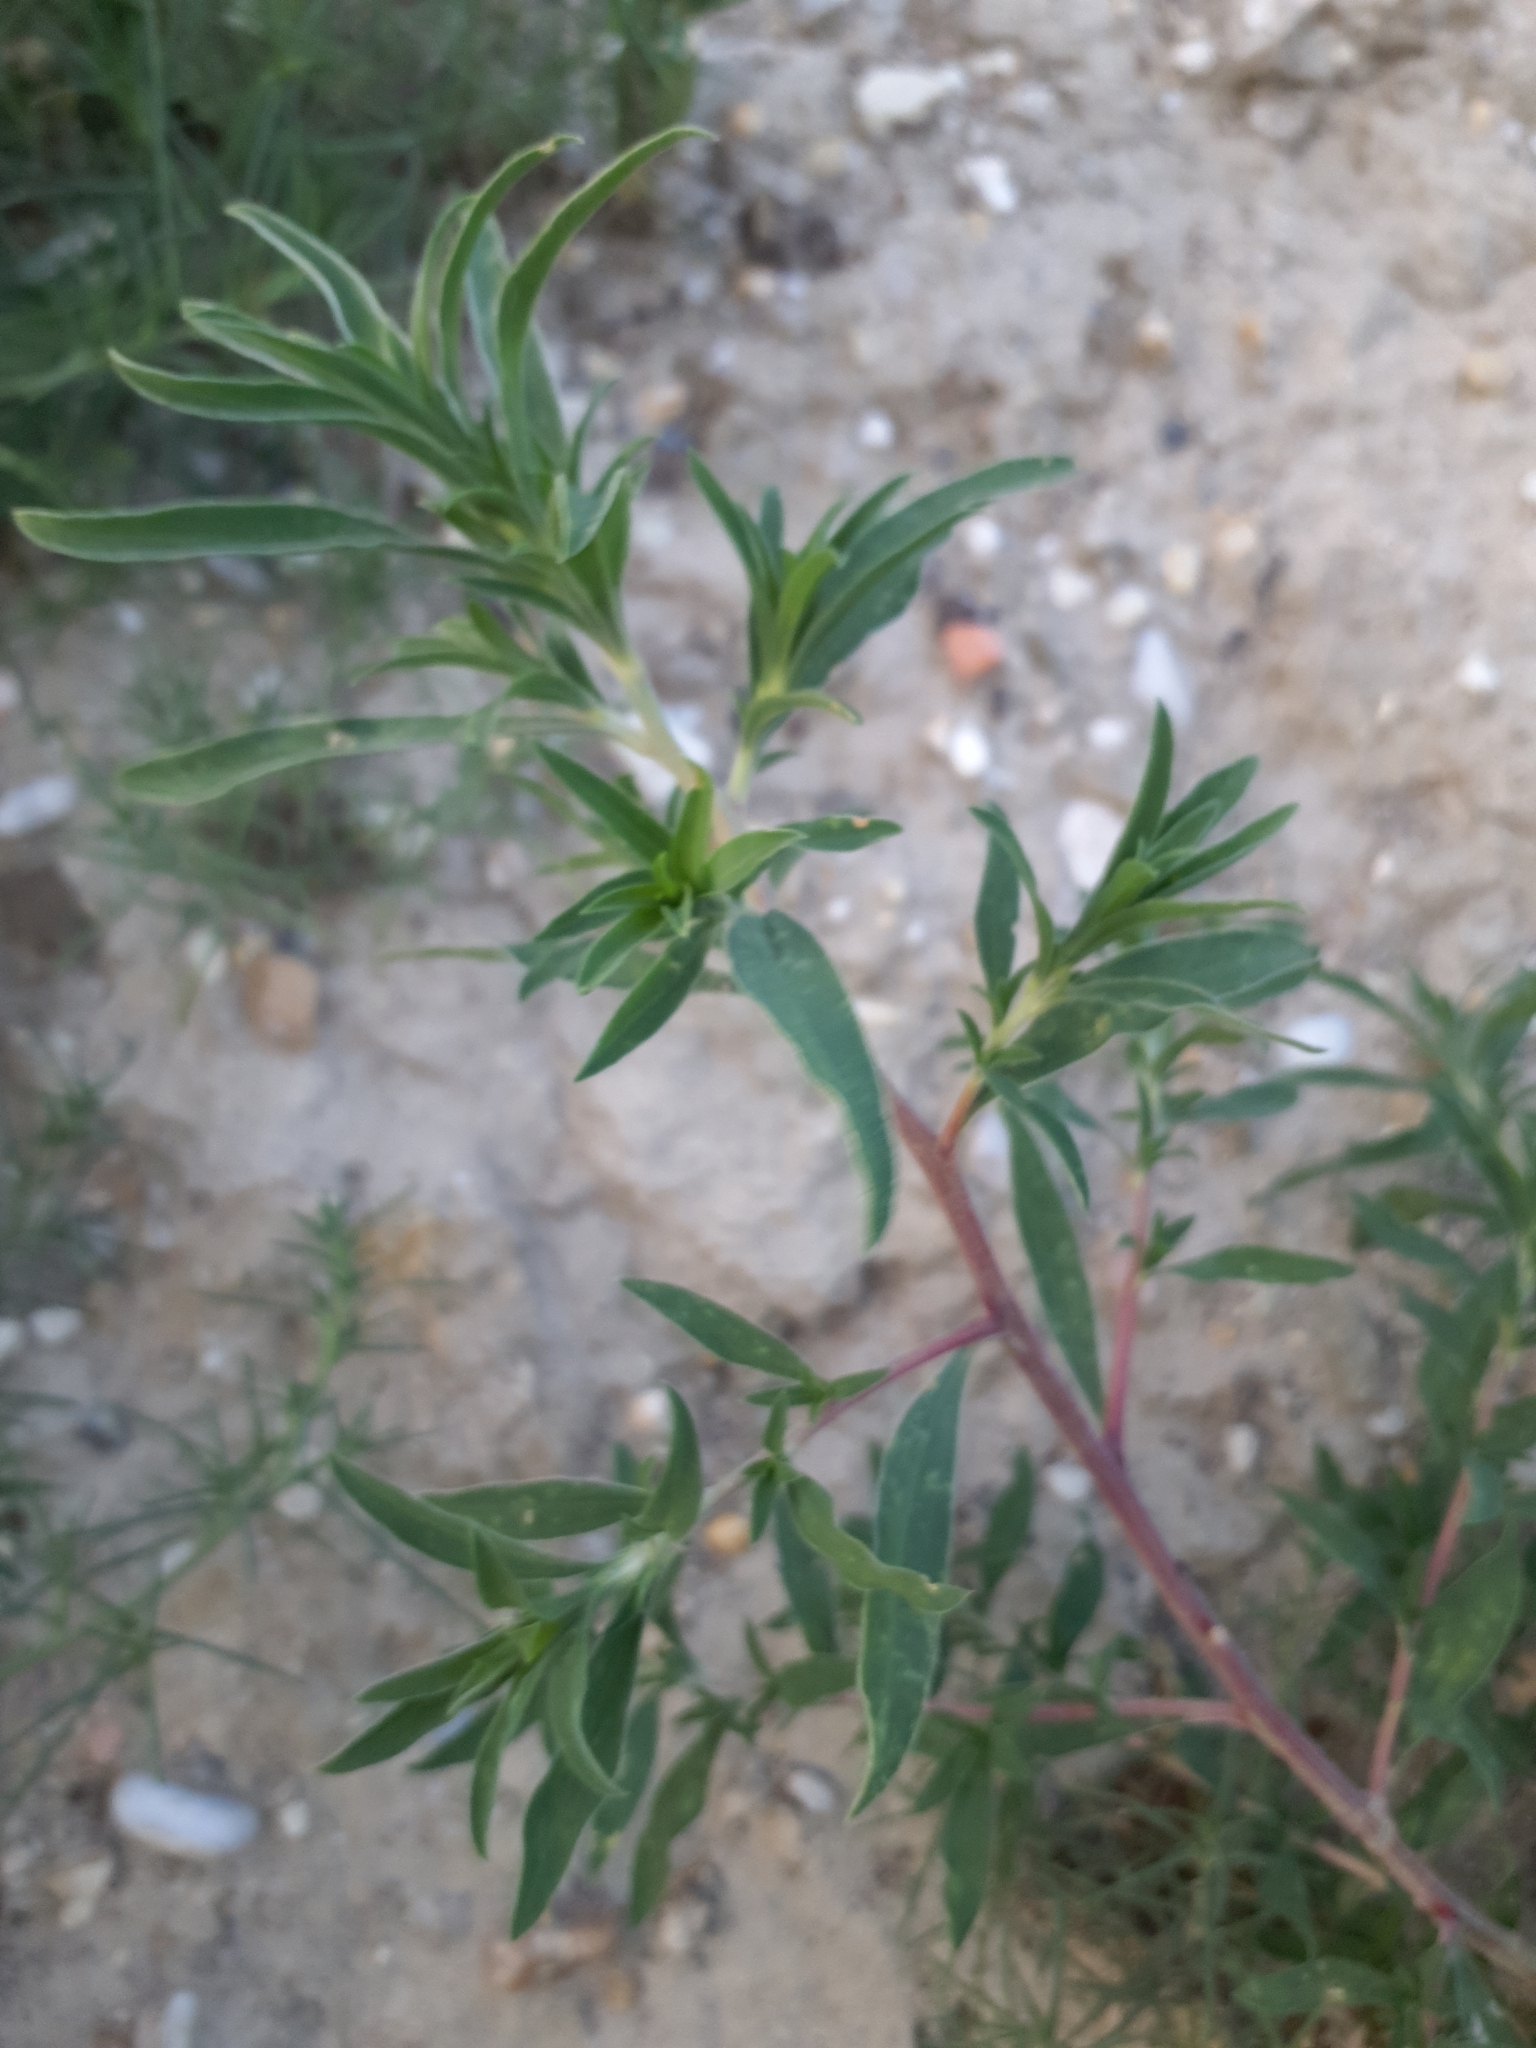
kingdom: Plantae
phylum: Tracheophyta
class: Magnoliopsida
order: Caryophyllales
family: Amaranthaceae
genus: Bassia
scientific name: Bassia scoparia
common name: Belvedere
